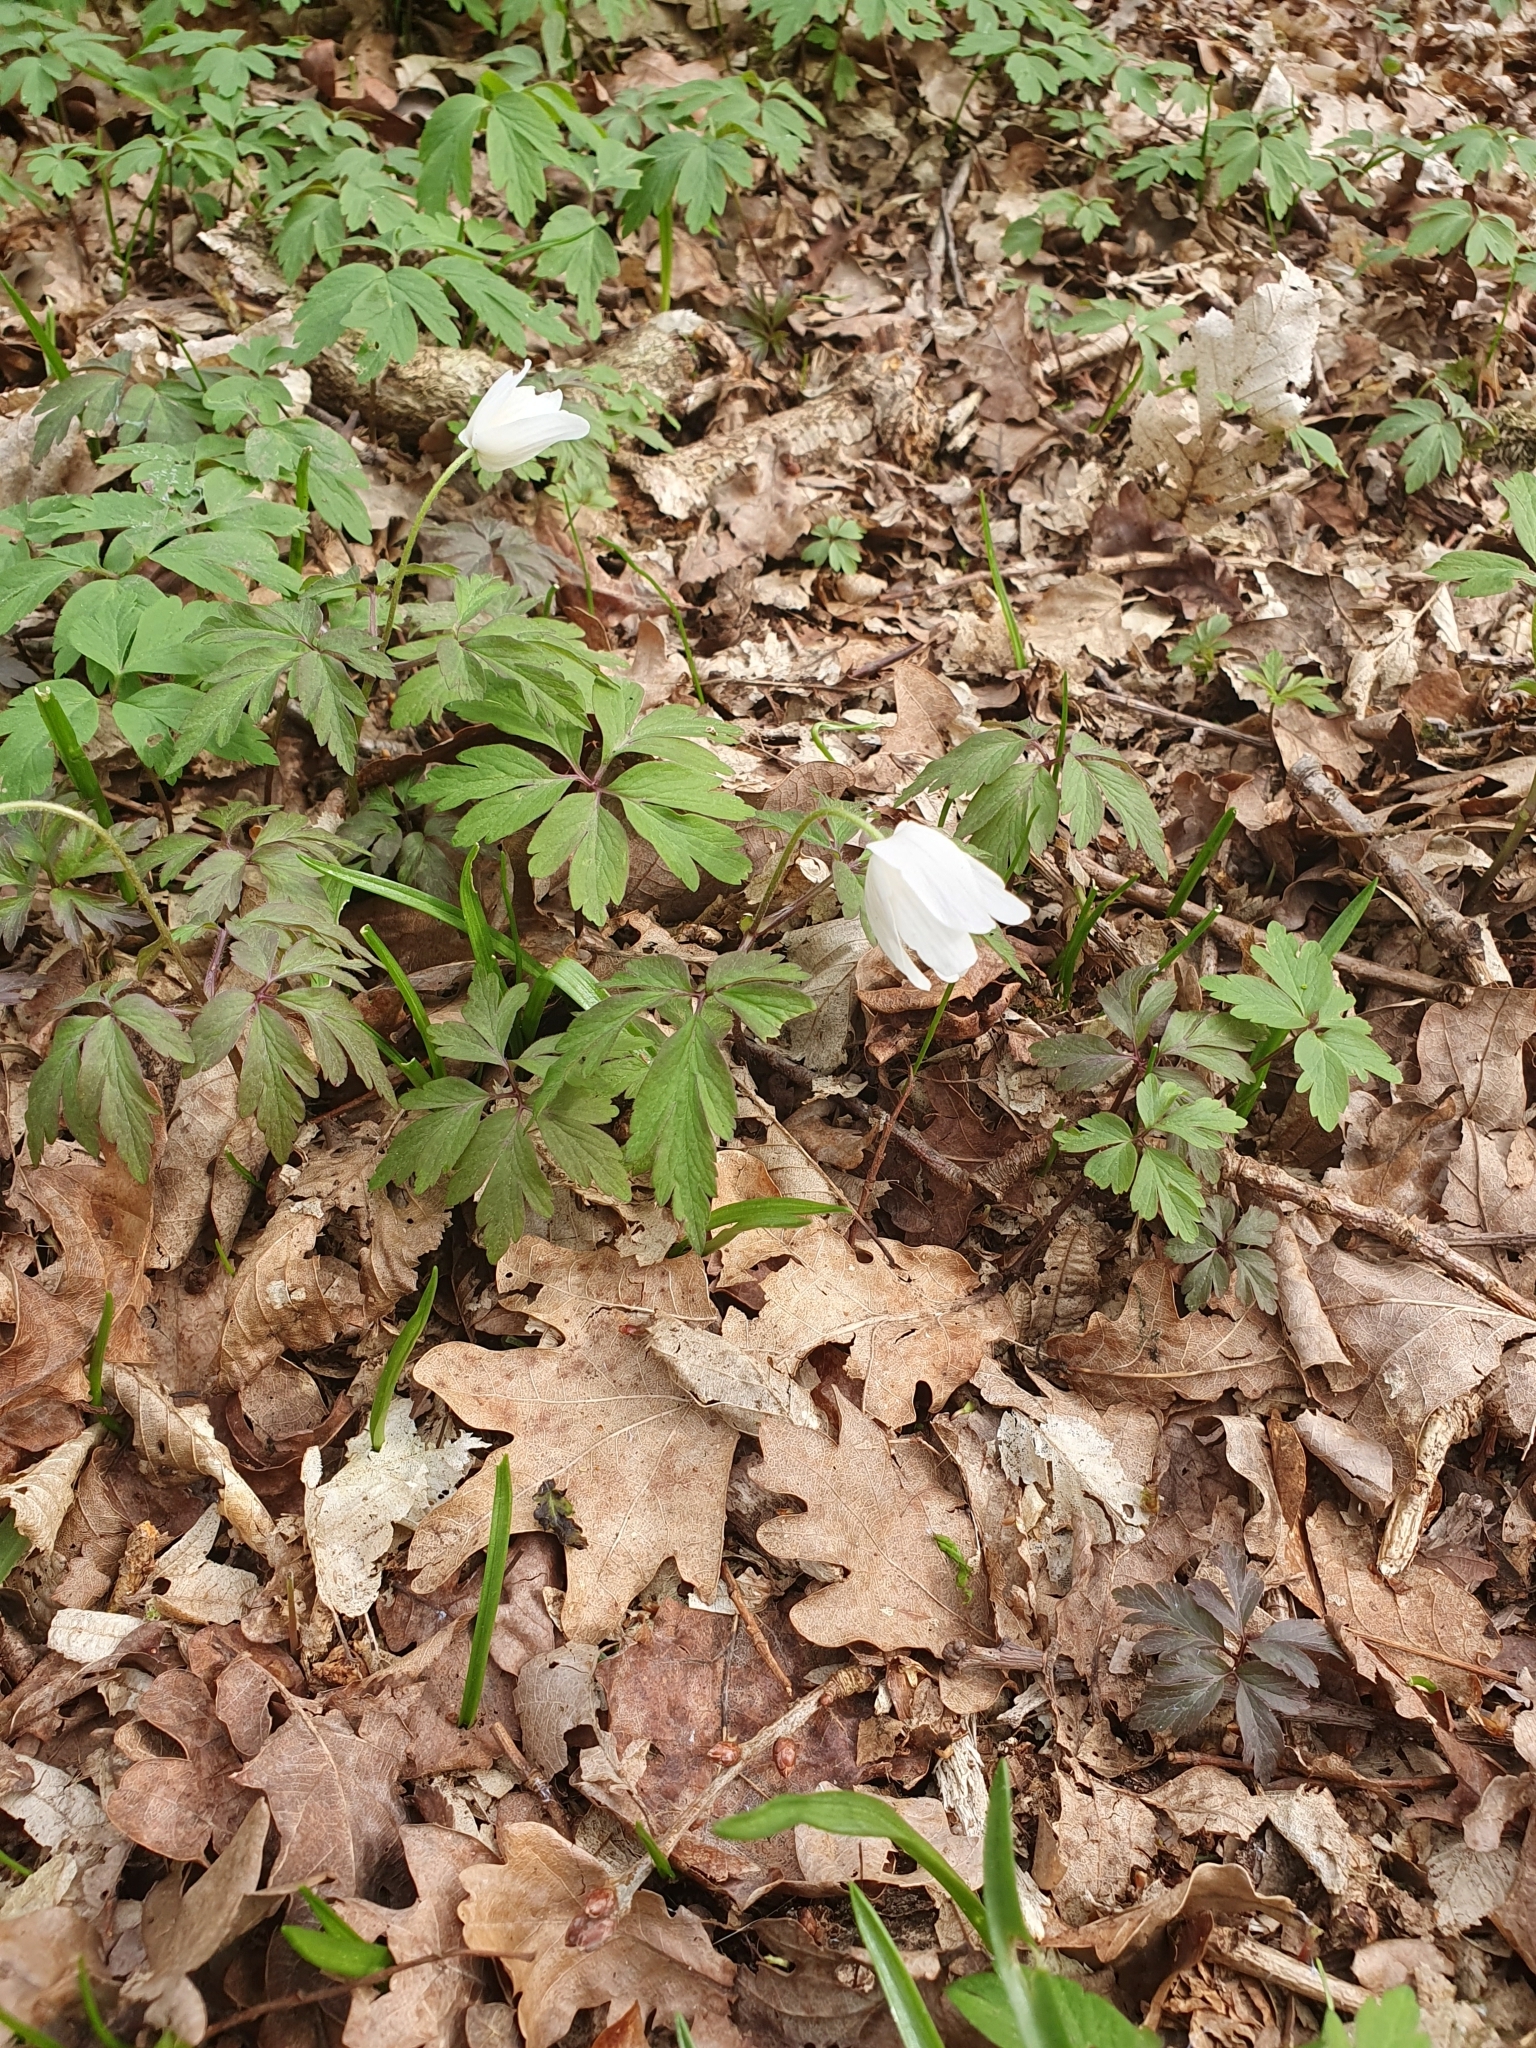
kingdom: Plantae
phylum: Tracheophyta
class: Magnoliopsida
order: Ranunculales
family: Ranunculaceae
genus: Anemone
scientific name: Anemone nemorosa
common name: Wood anemone
